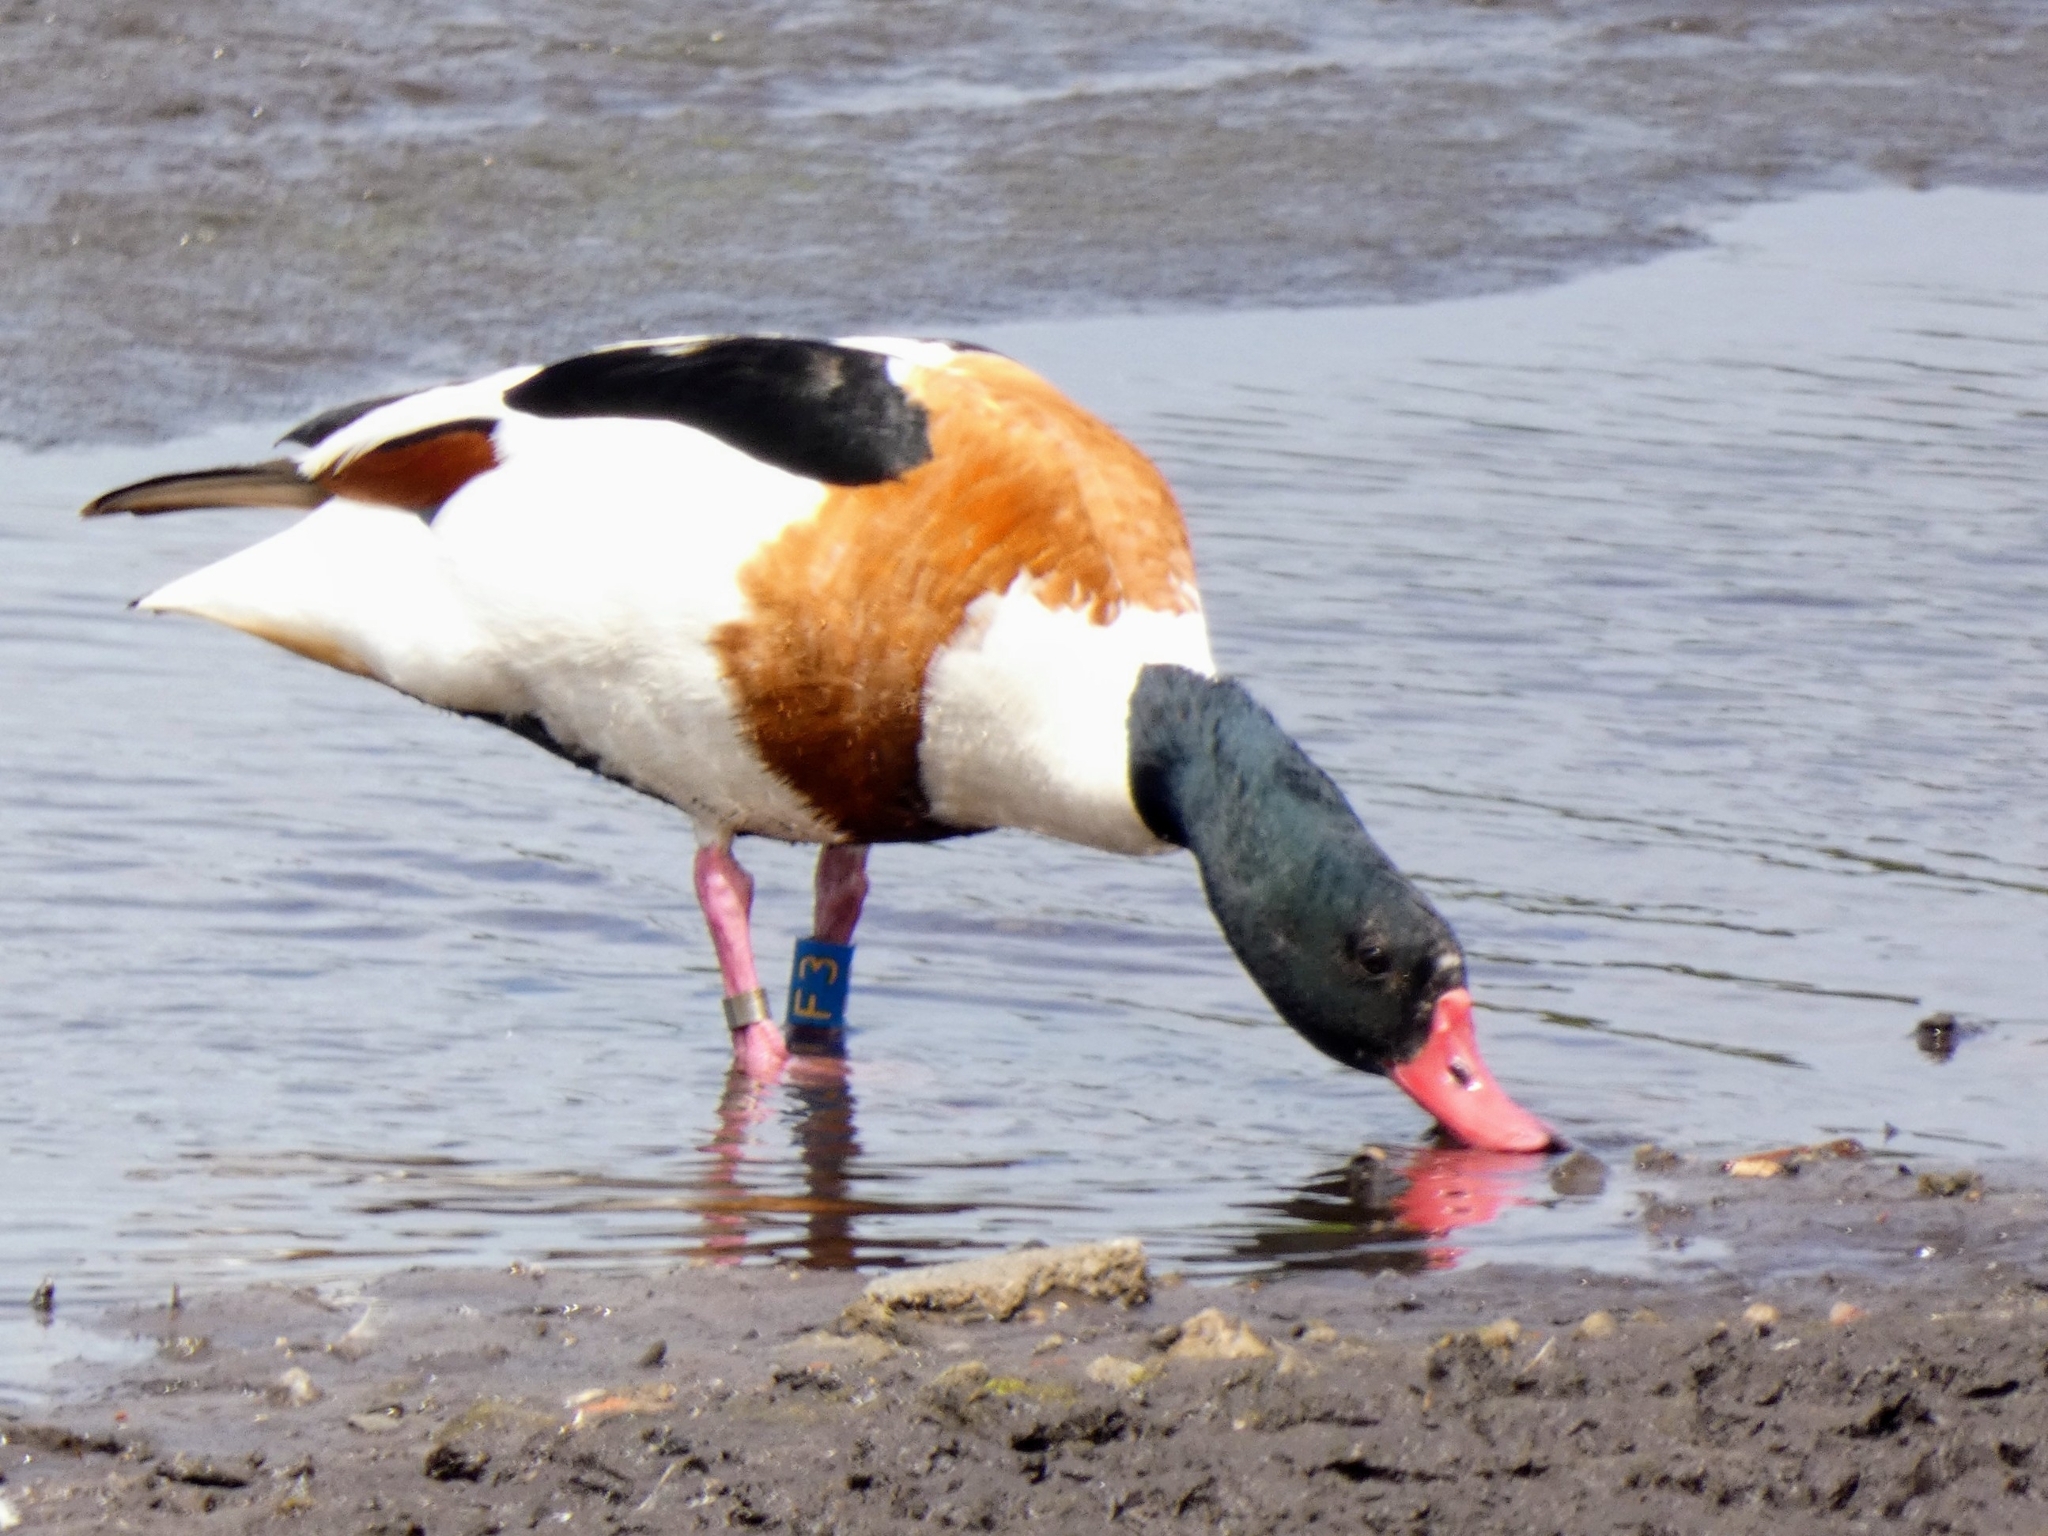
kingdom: Animalia
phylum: Chordata
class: Aves
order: Anseriformes
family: Anatidae
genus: Tadorna
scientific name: Tadorna tadorna
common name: Common shelduck
